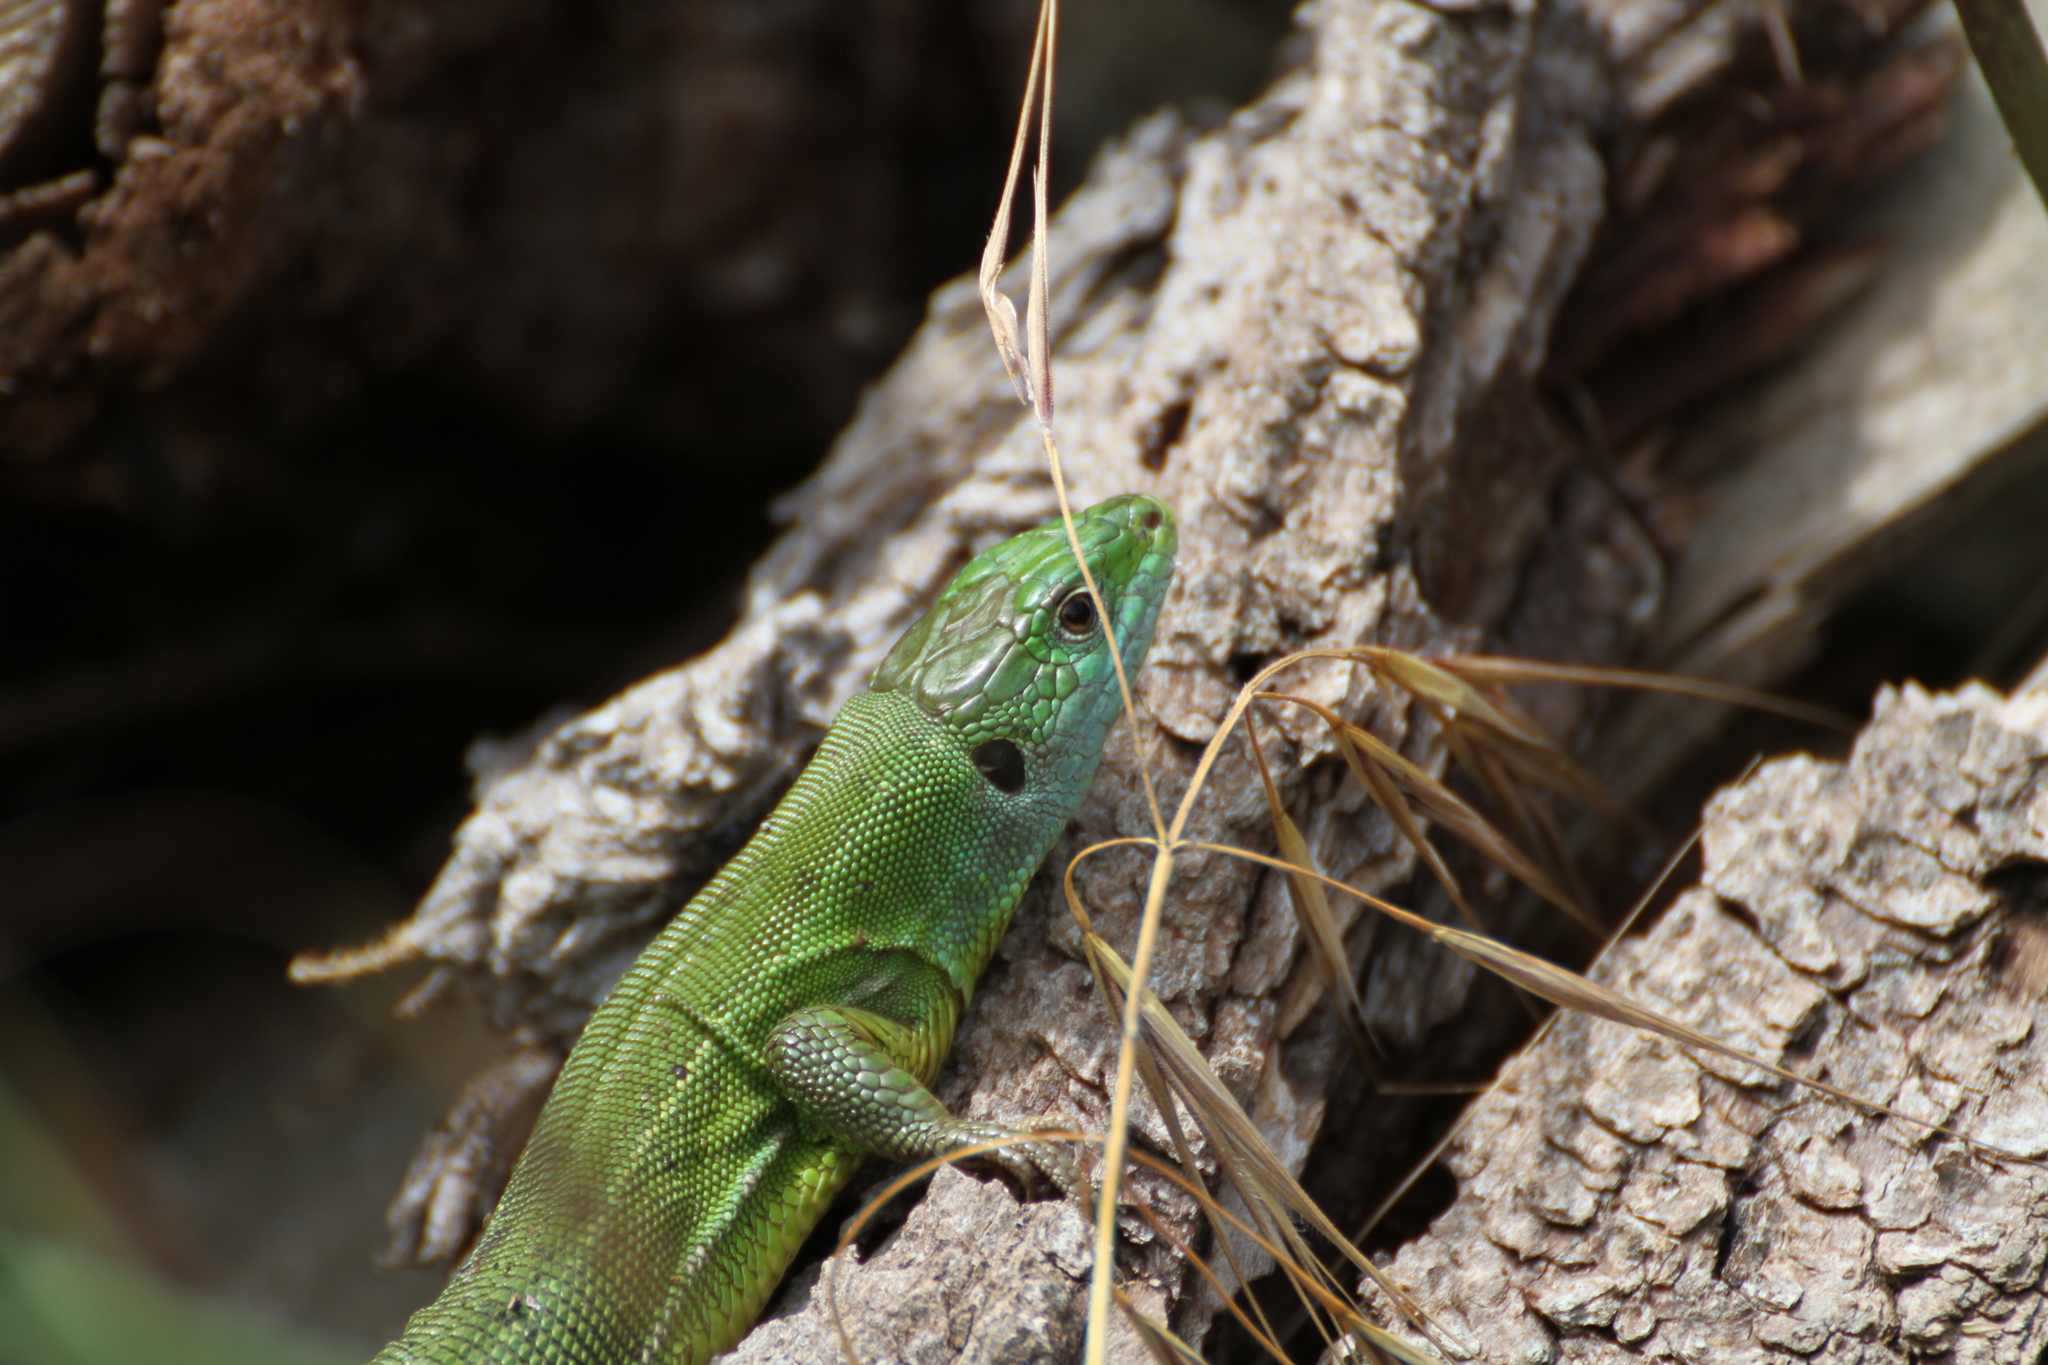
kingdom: Animalia
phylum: Chordata
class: Squamata
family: Lacertidae
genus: Lacerta
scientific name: Lacerta bilineata
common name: Western green lizard
